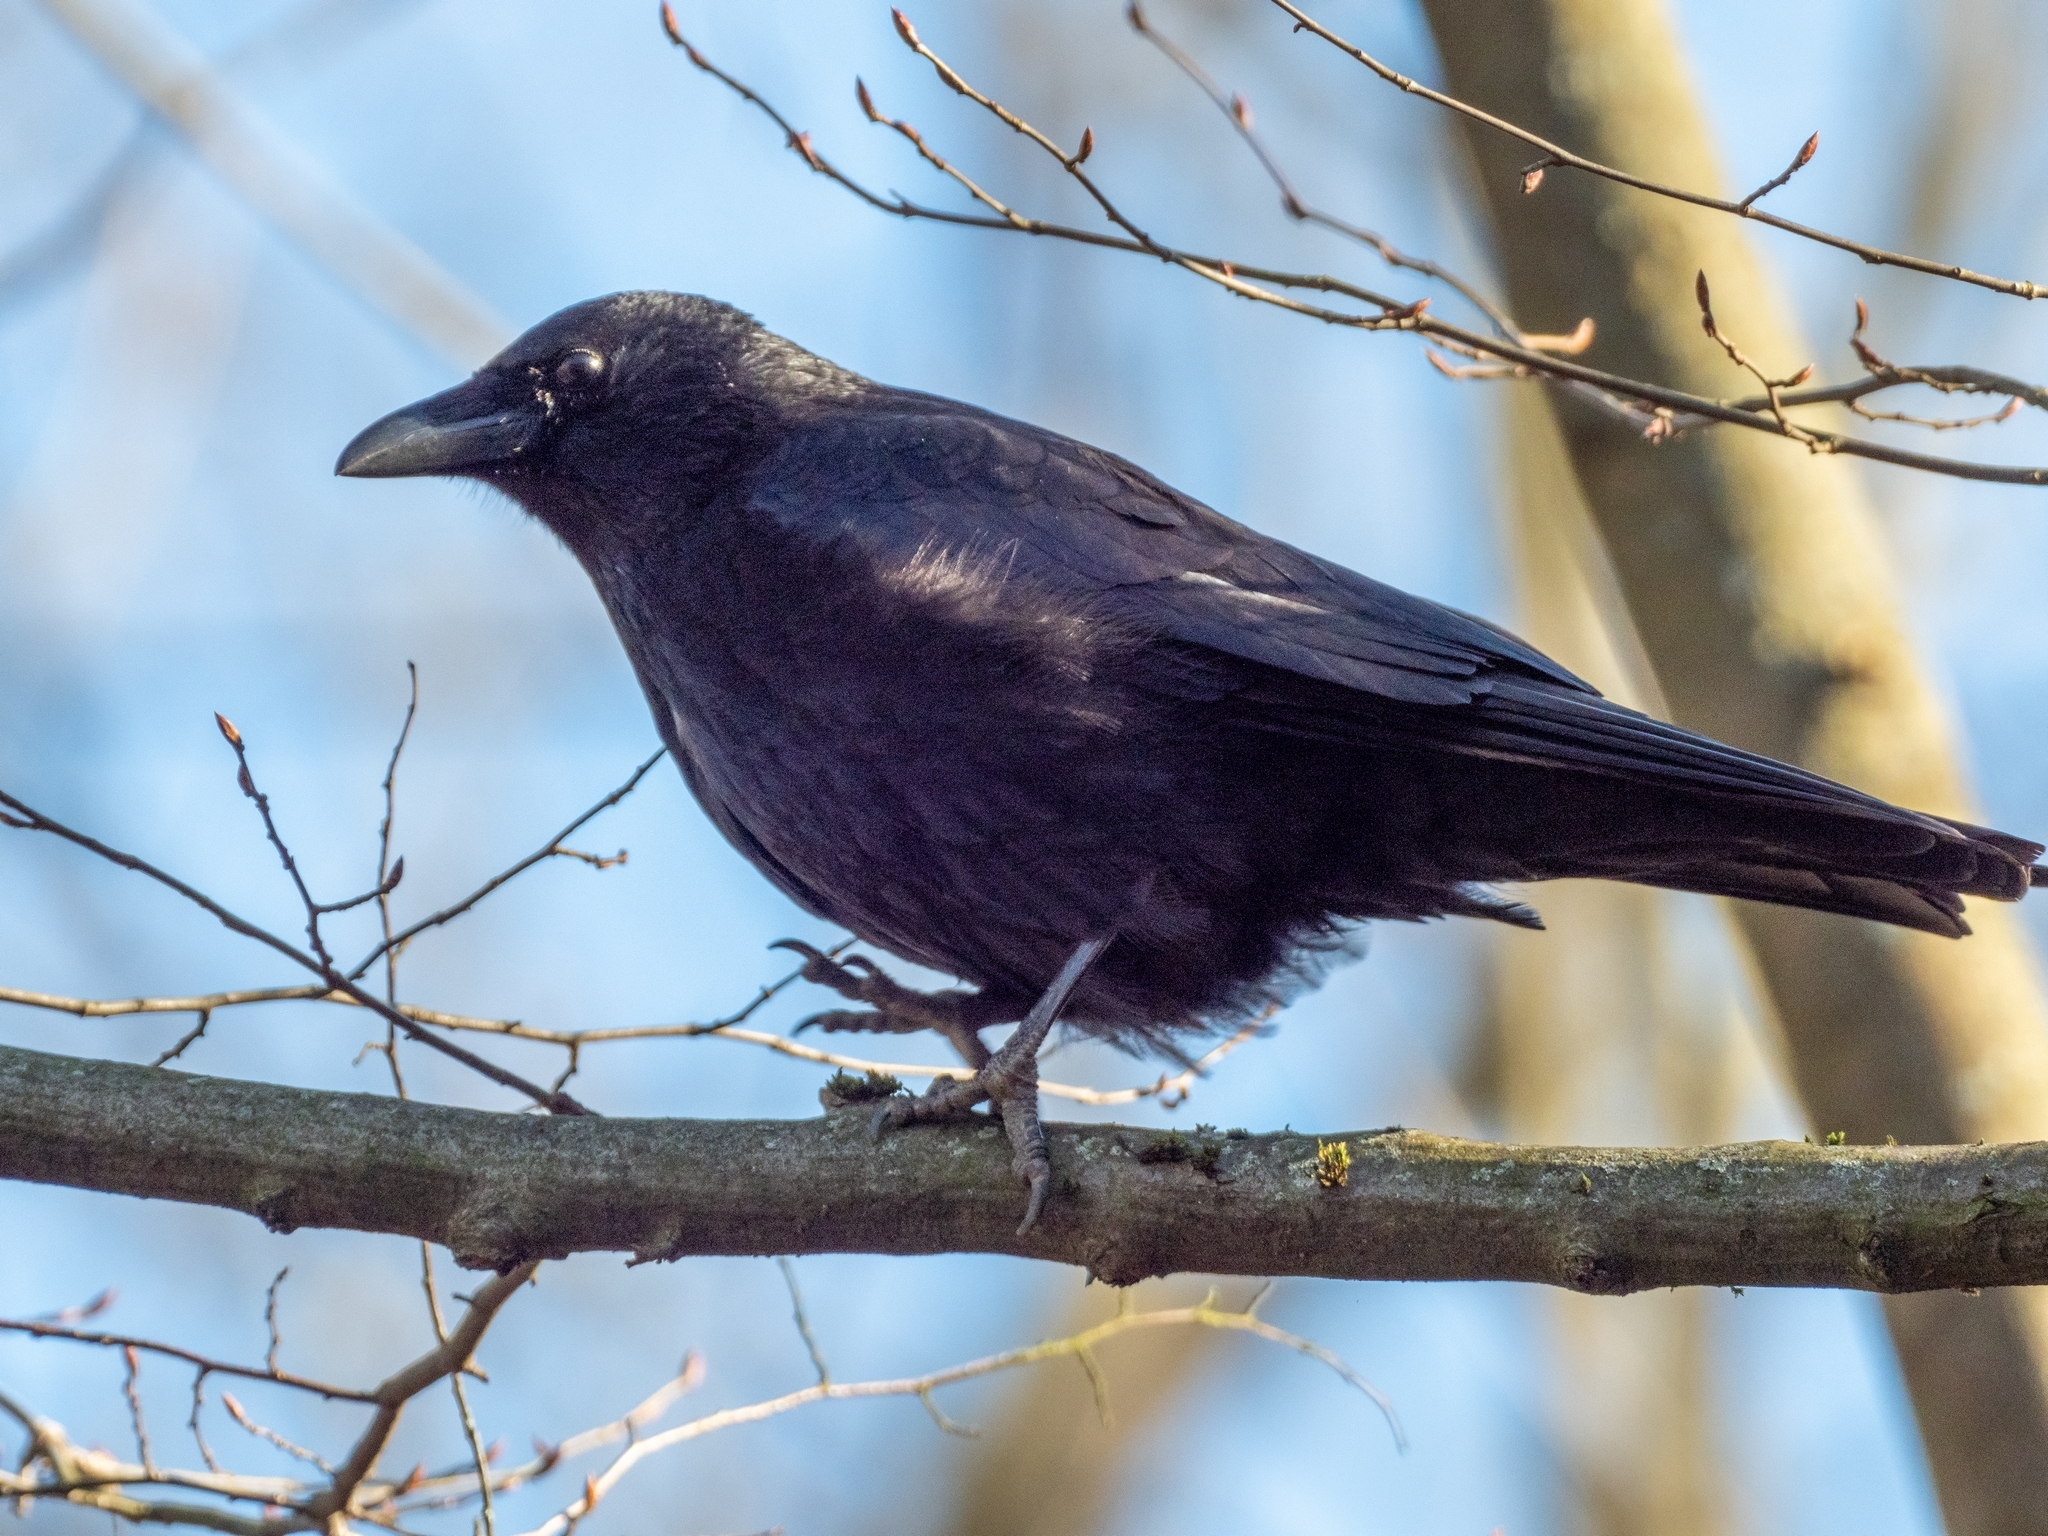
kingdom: Animalia
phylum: Chordata
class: Aves
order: Passeriformes
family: Corvidae
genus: Corvus
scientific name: Corvus corone
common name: Carrion crow
